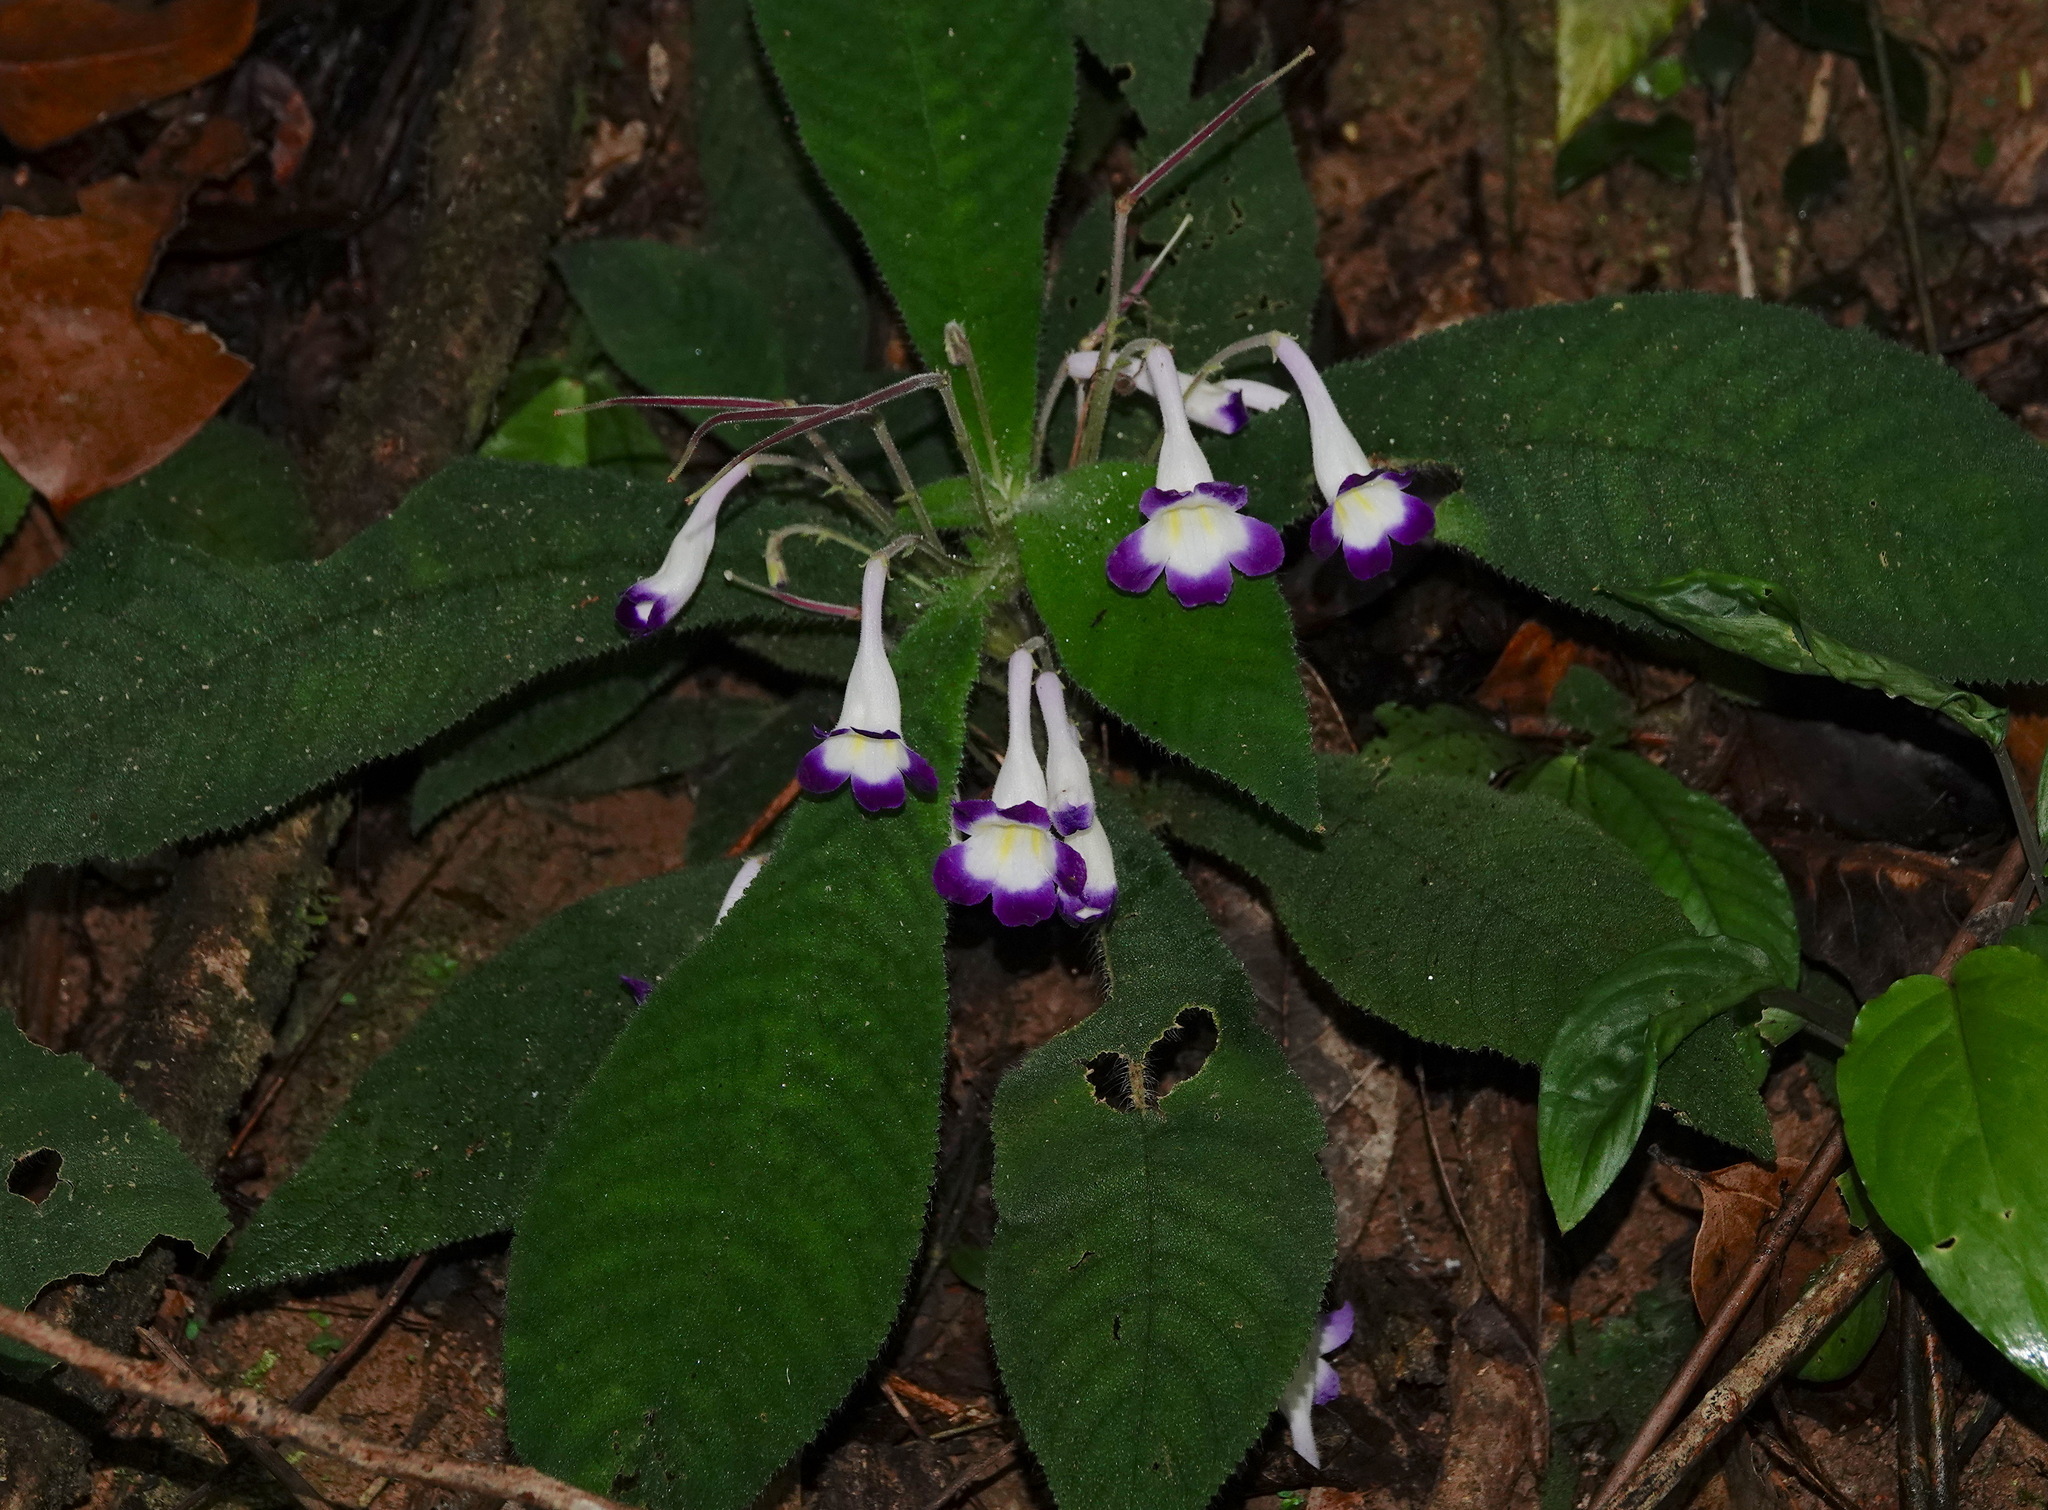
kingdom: Plantae
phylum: Tracheophyta
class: Magnoliopsida
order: Lamiales
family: Gesneriaceae
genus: Codonoboea
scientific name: Codonoboea quinquevulnera
